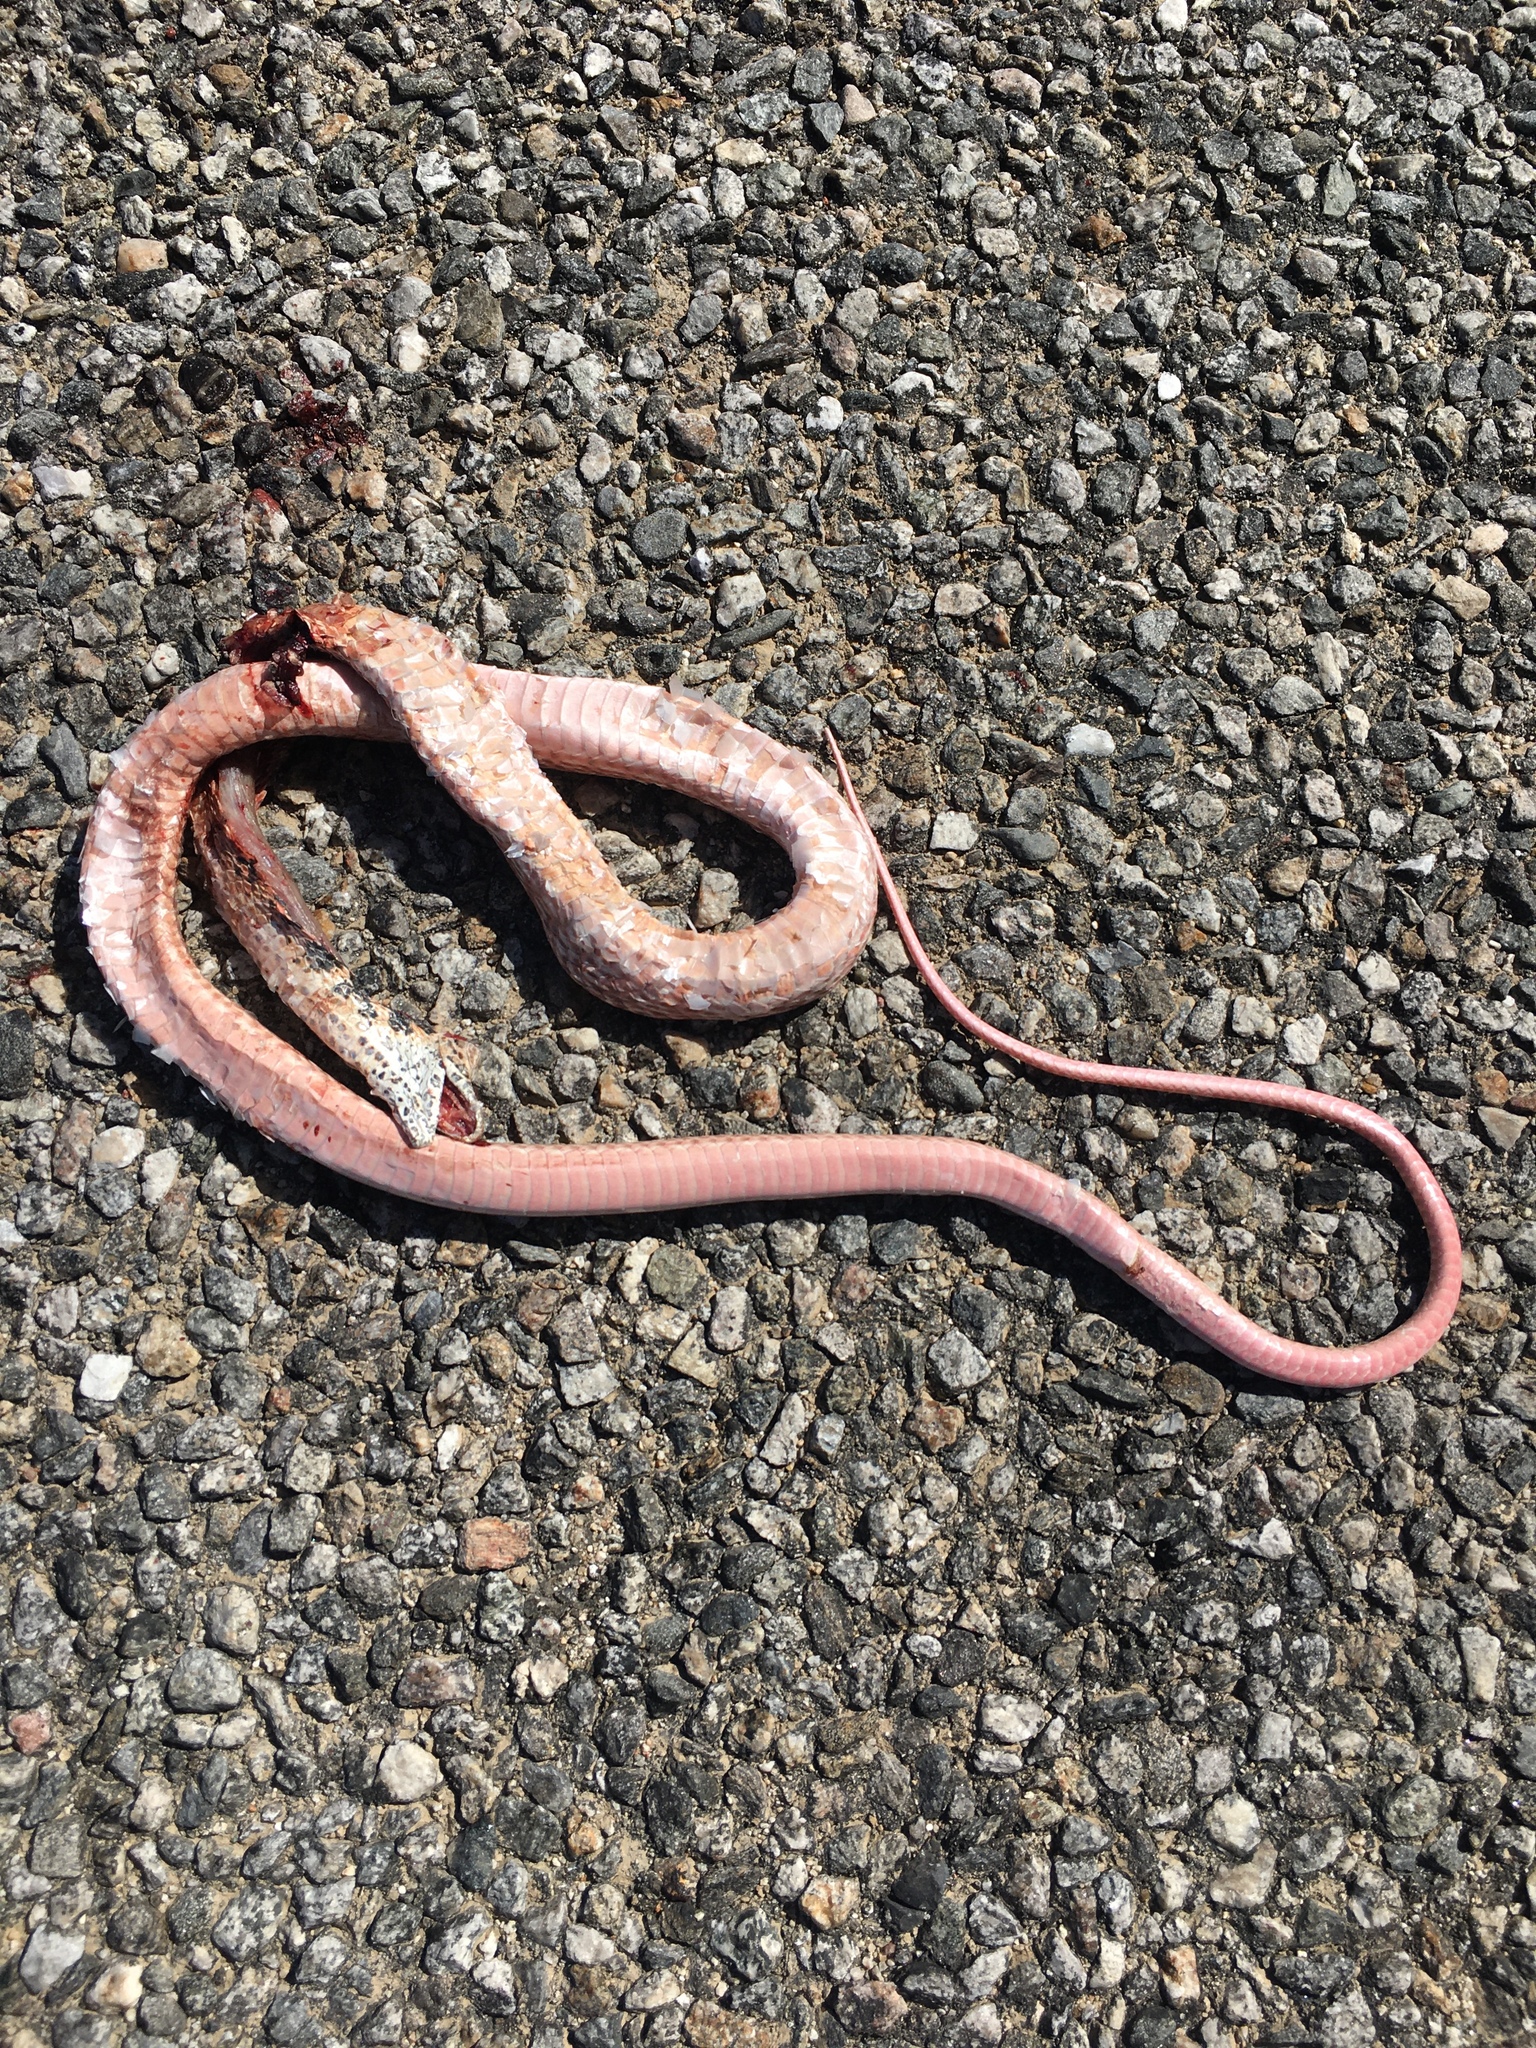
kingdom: Animalia
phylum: Chordata
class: Squamata
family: Colubridae
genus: Masticophis
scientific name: Masticophis flagellum
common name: Coachwhip
